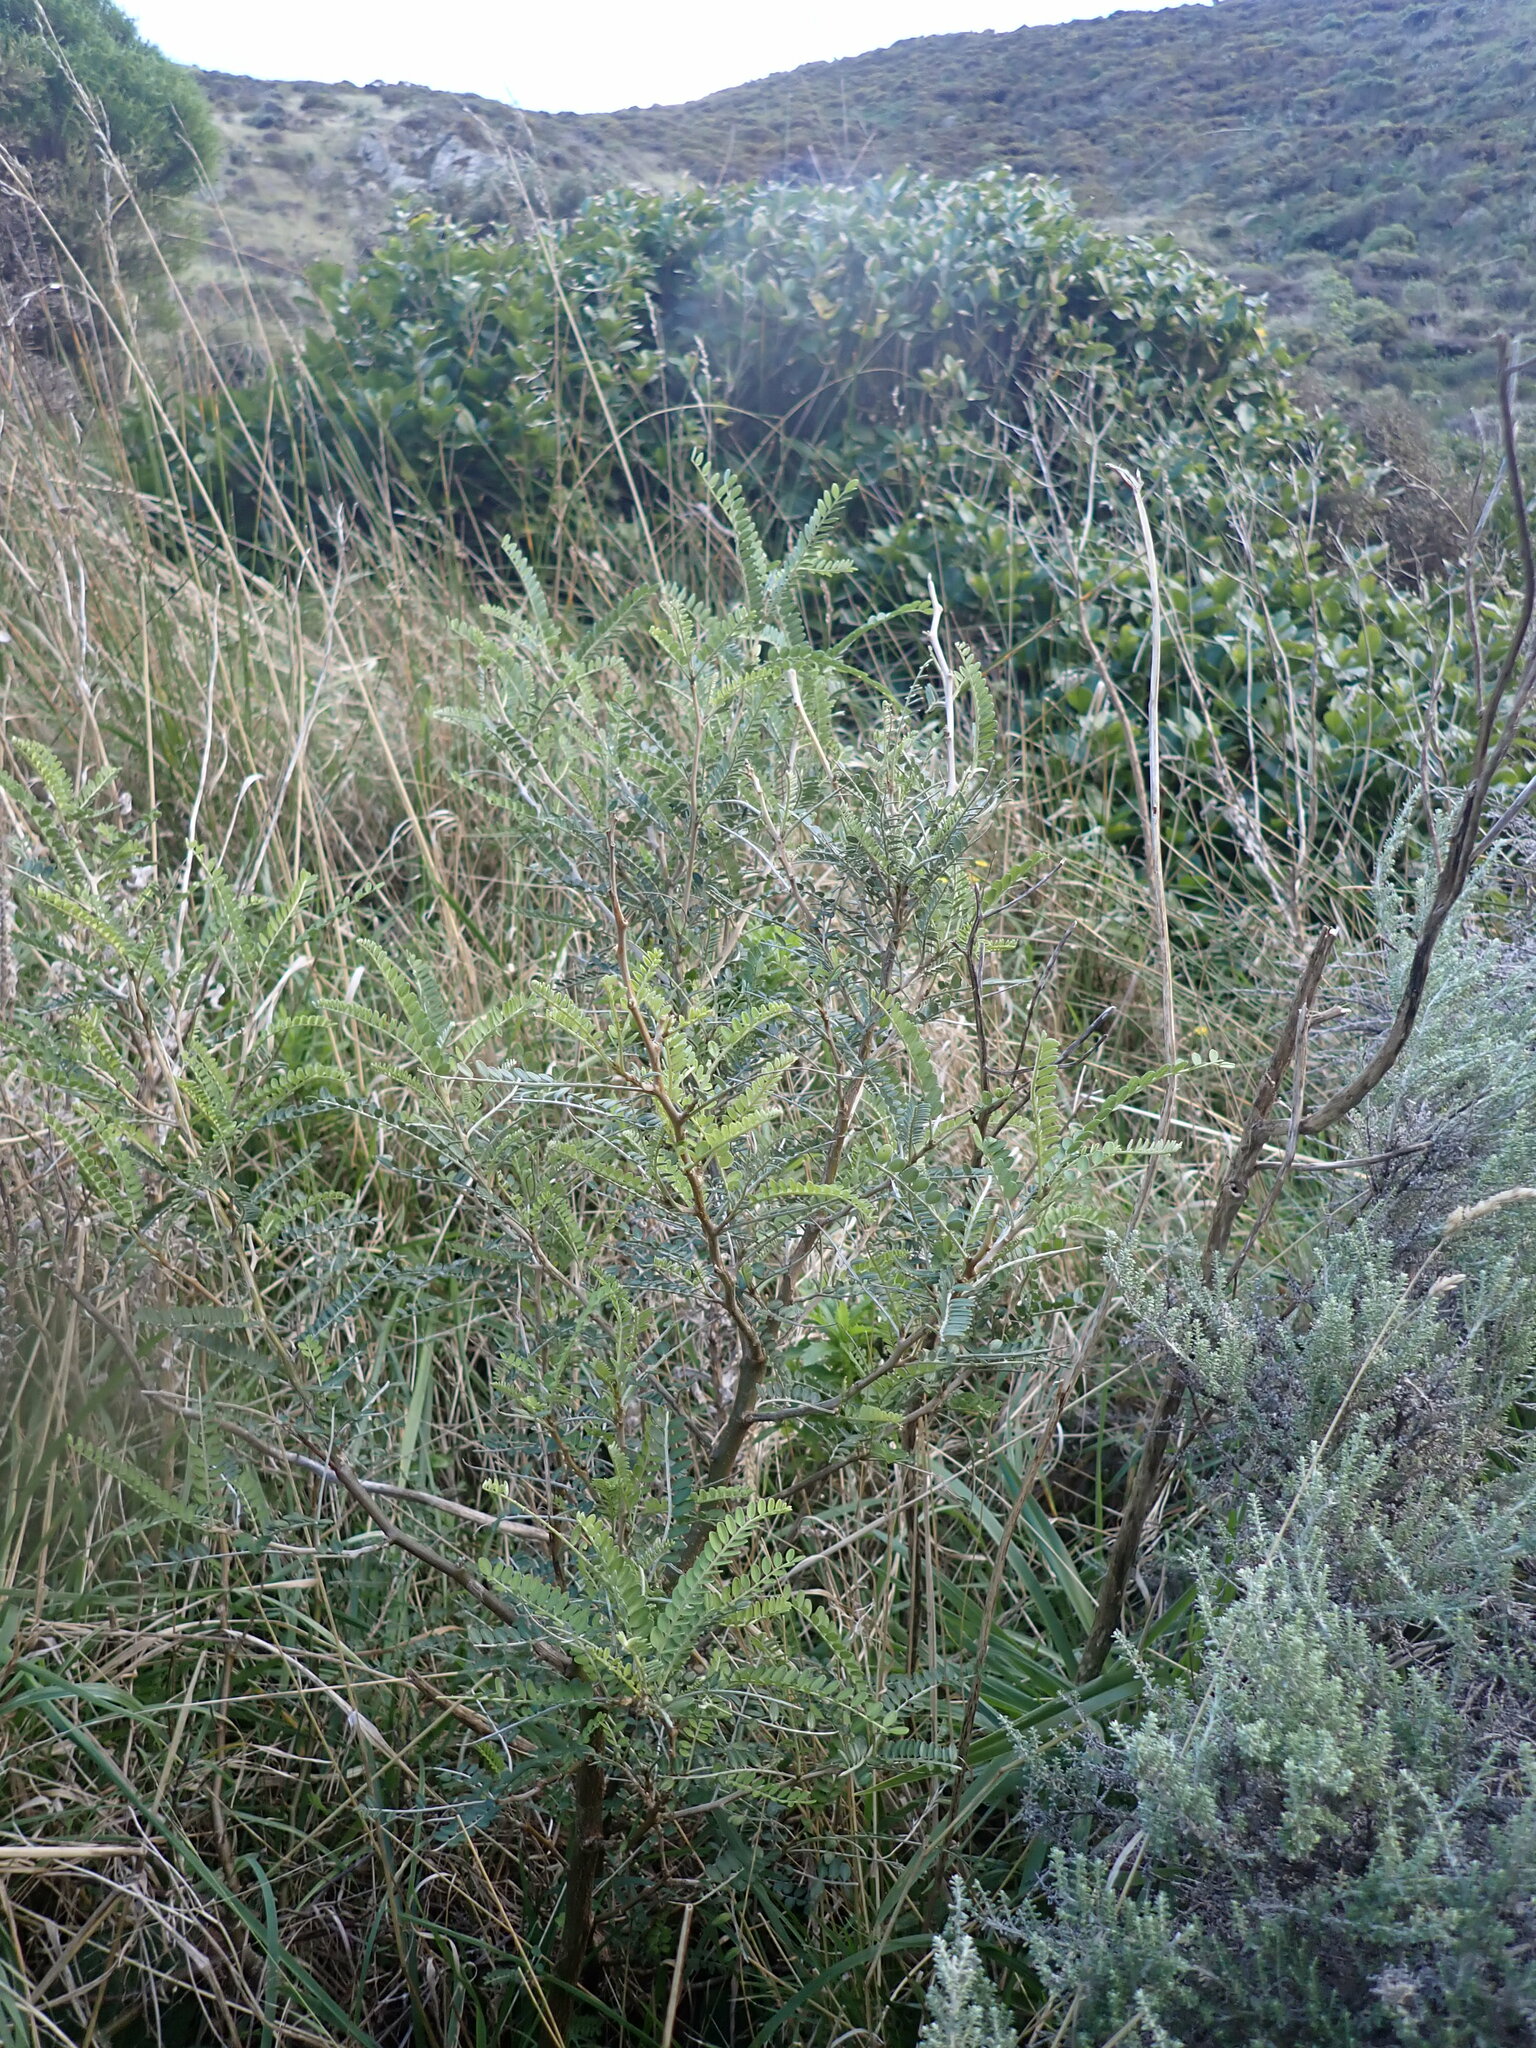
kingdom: Plantae
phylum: Tracheophyta
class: Magnoliopsida
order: Fabales
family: Fabaceae
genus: Sophora
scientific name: Sophora molloyi
